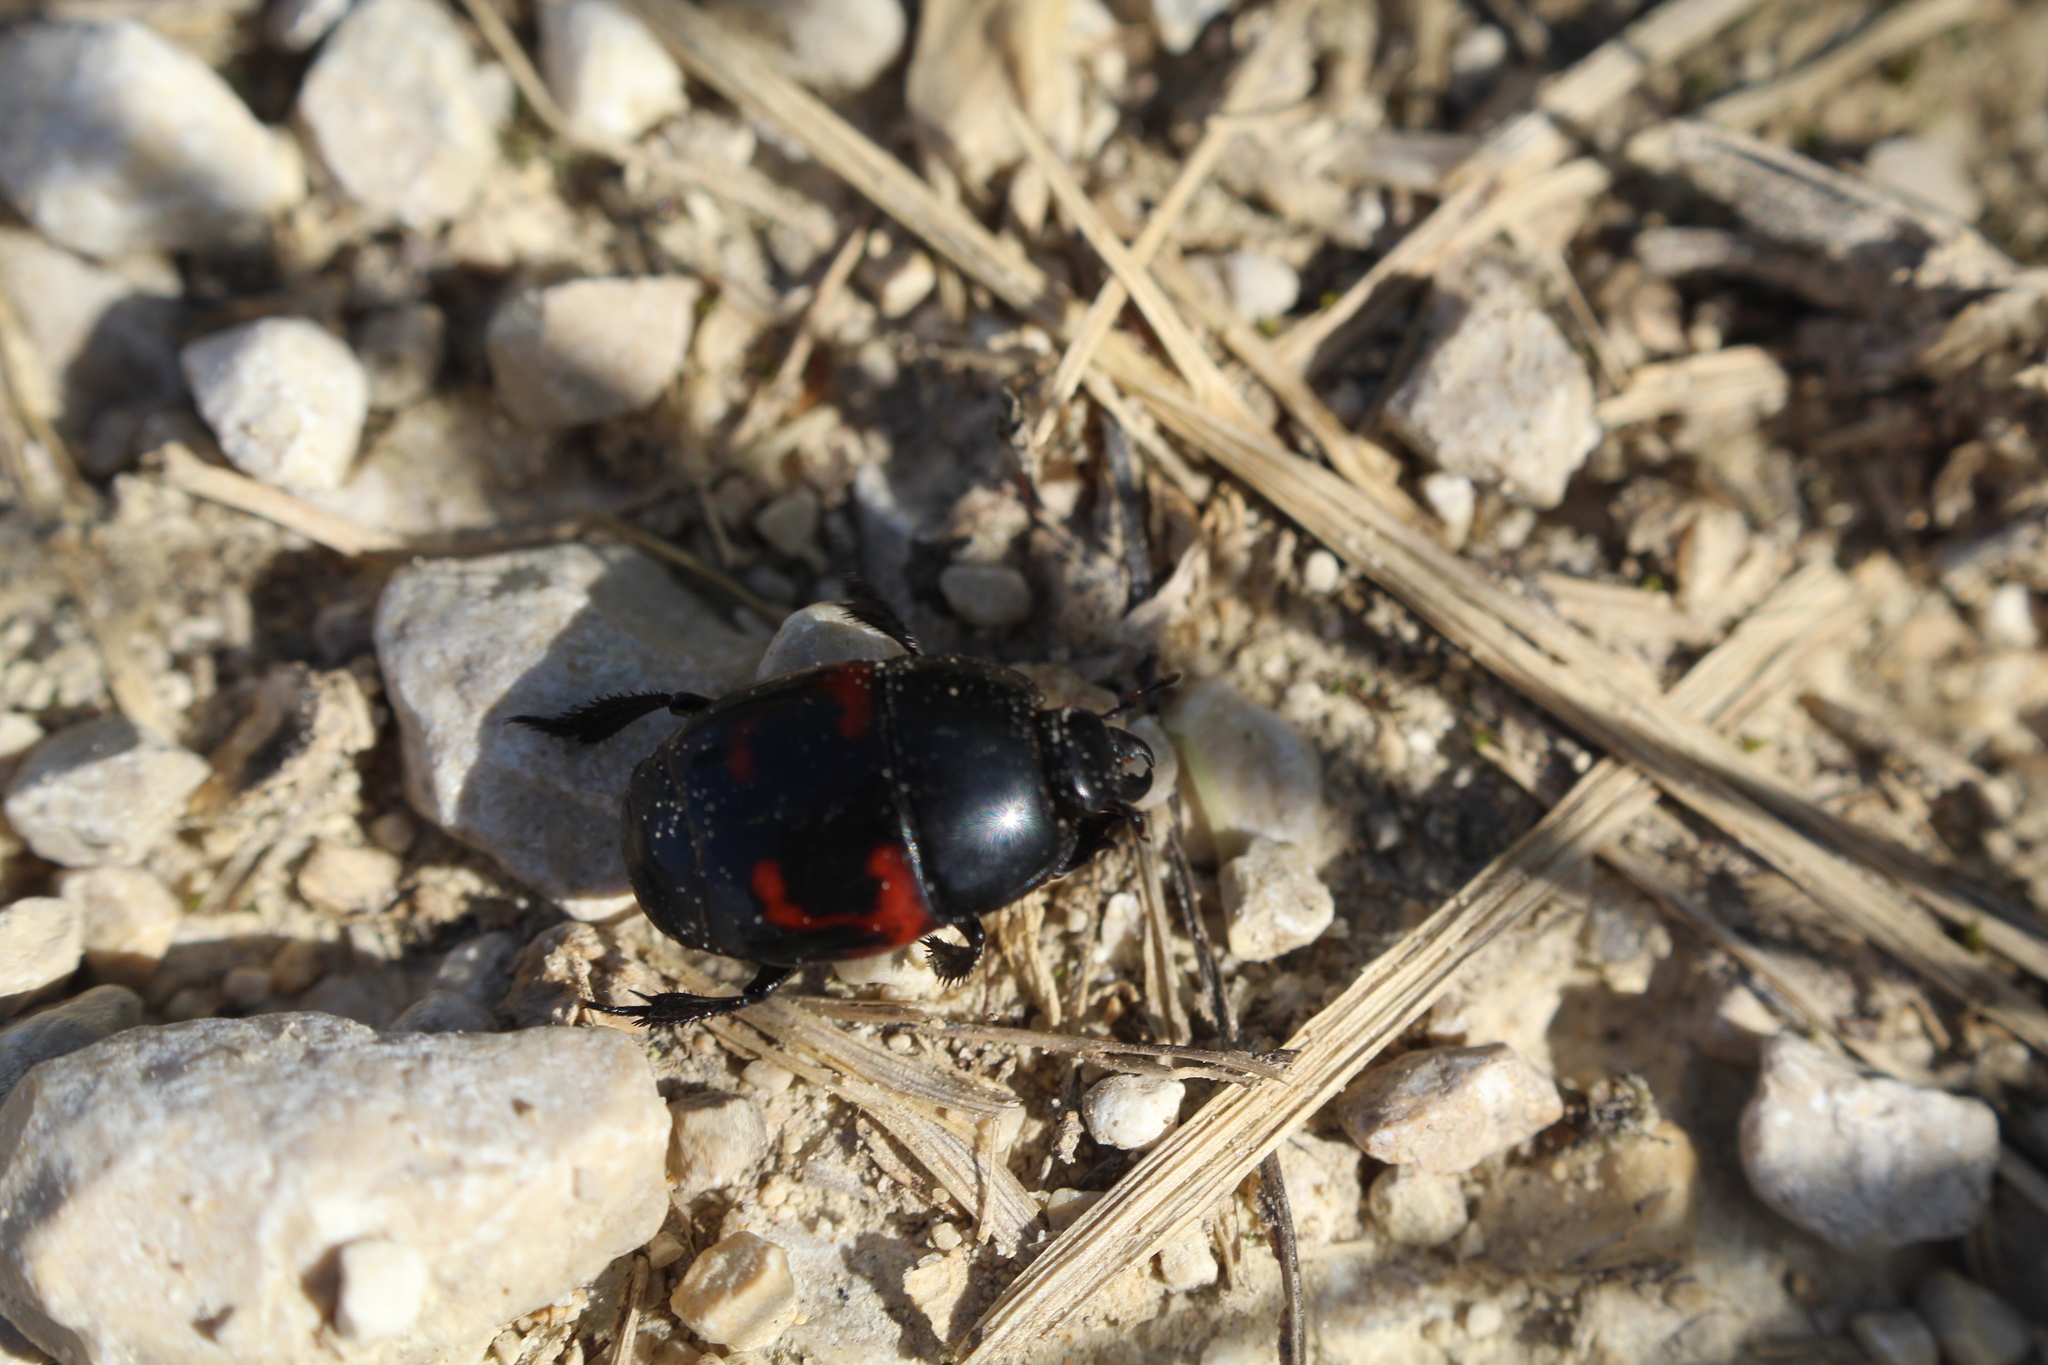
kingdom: Animalia
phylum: Arthropoda
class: Insecta
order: Coleoptera
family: Histeridae
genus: Hister
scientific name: Hister quadrimaculatus
